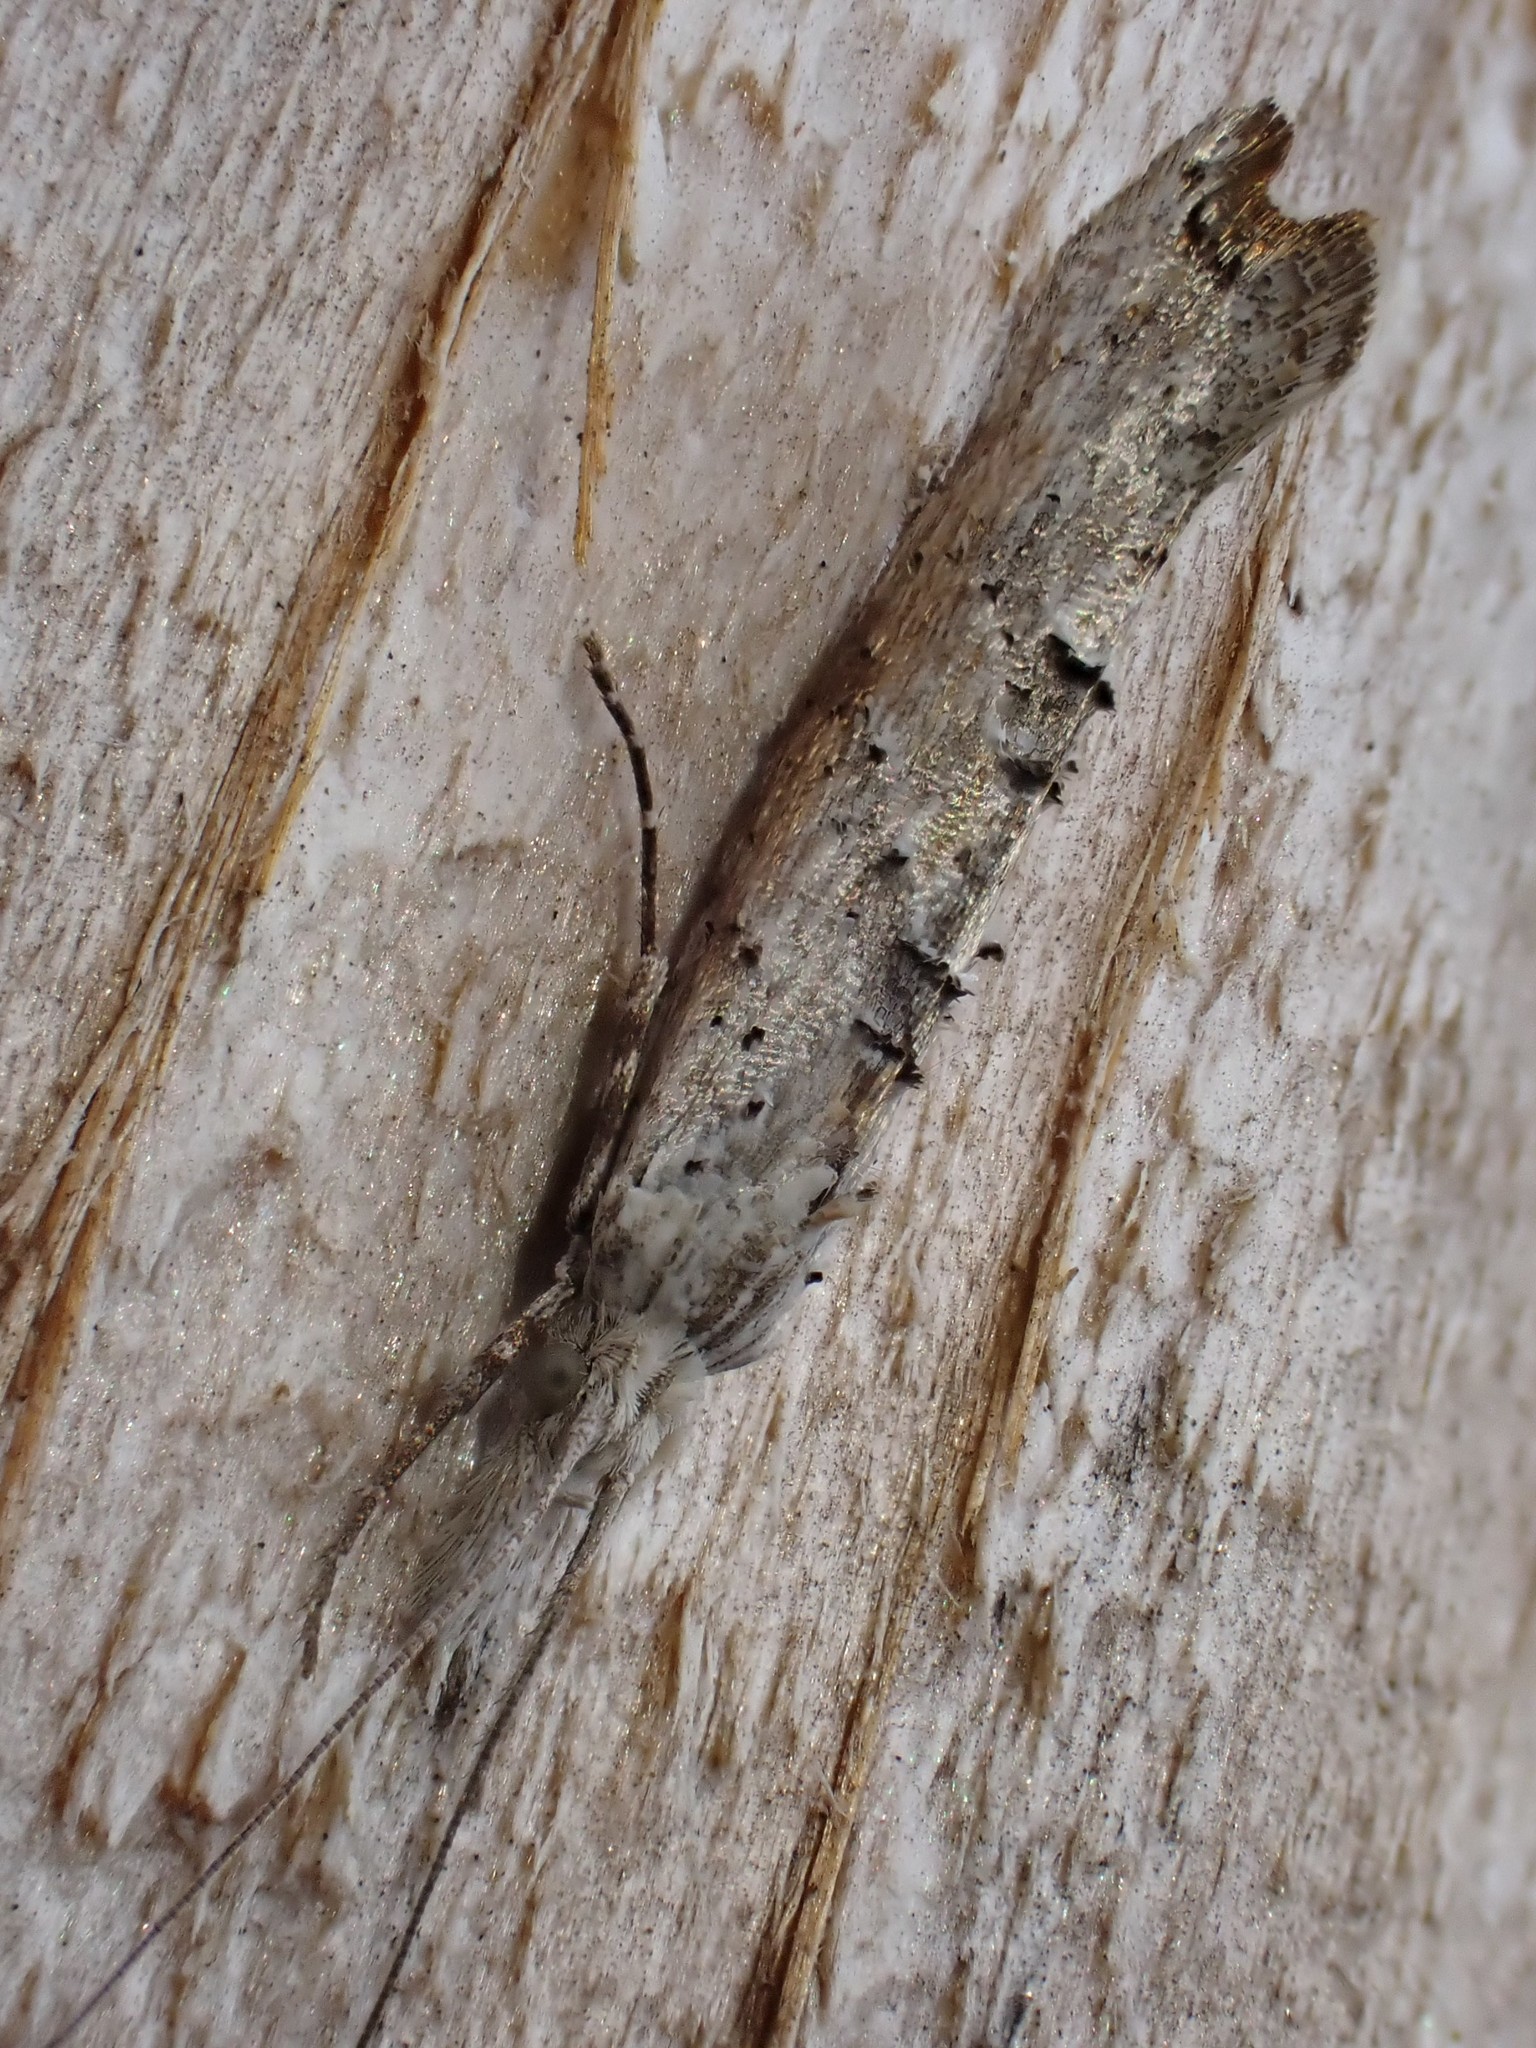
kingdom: Animalia
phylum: Arthropoda
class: Insecta
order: Lepidoptera
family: Ypsolophidae
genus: Ypsolopha
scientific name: Ypsolopha falciferella
